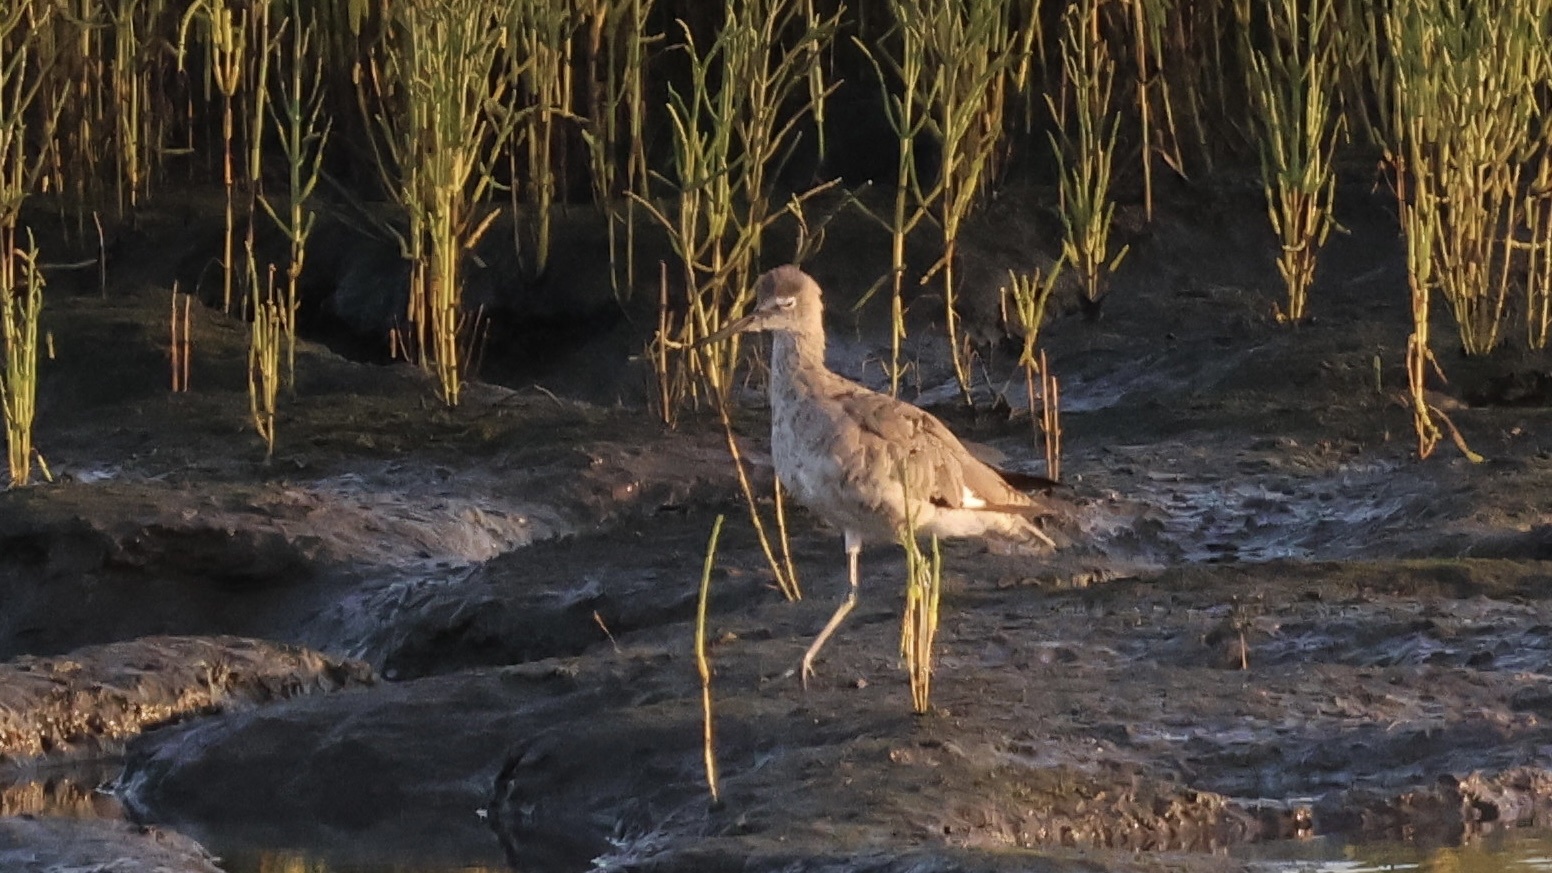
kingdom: Animalia
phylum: Chordata
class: Aves
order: Charadriiformes
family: Scolopacidae
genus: Tringa
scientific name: Tringa semipalmata
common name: Willet
